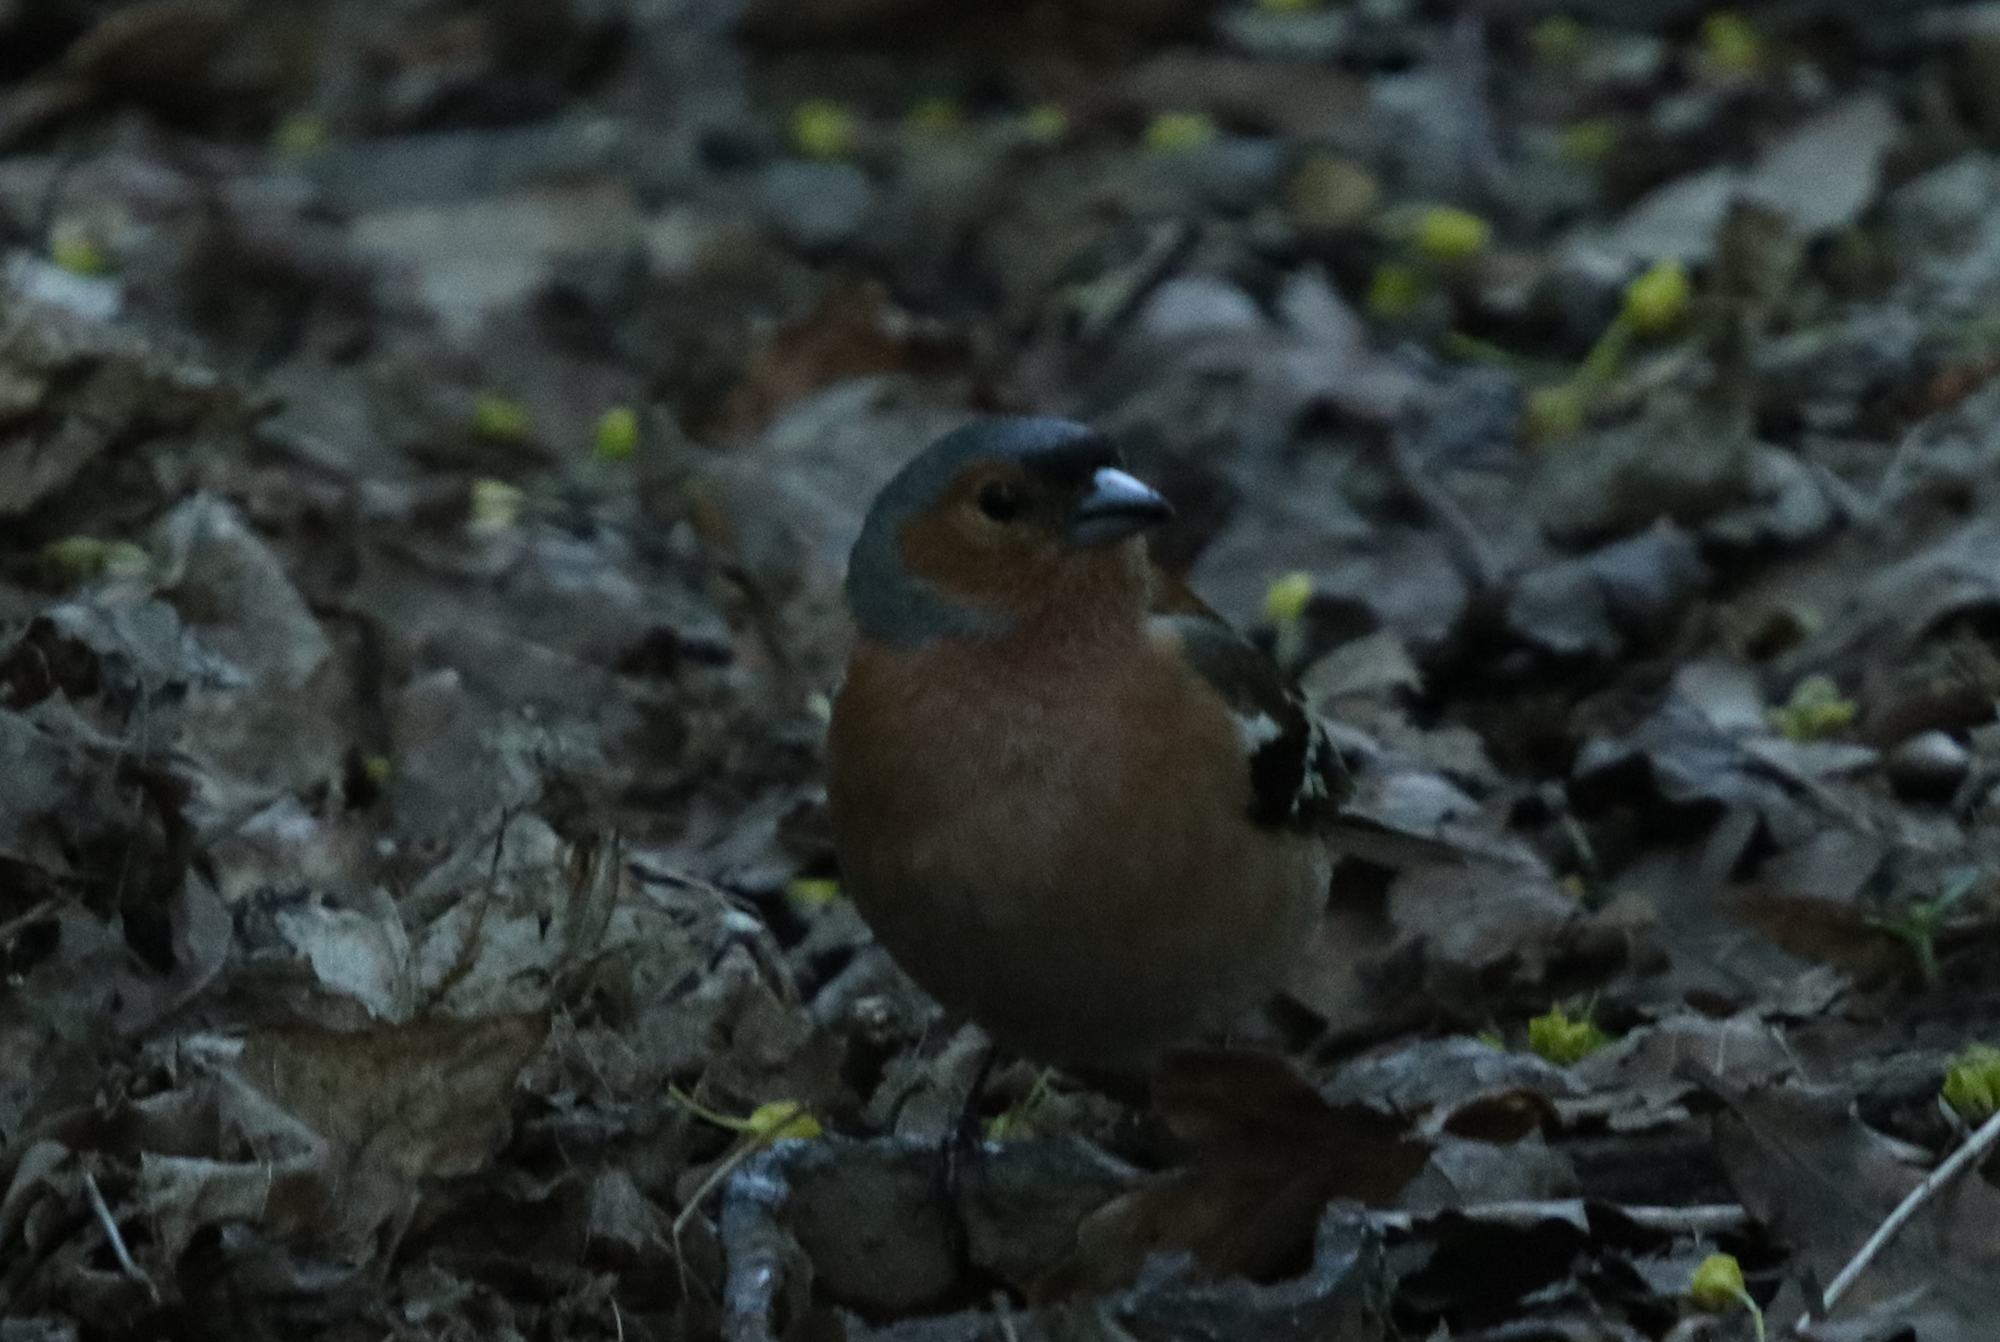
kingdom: Animalia
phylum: Chordata
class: Aves
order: Passeriformes
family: Fringillidae
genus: Fringilla
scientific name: Fringilla coelebs
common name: Common chaffinch
